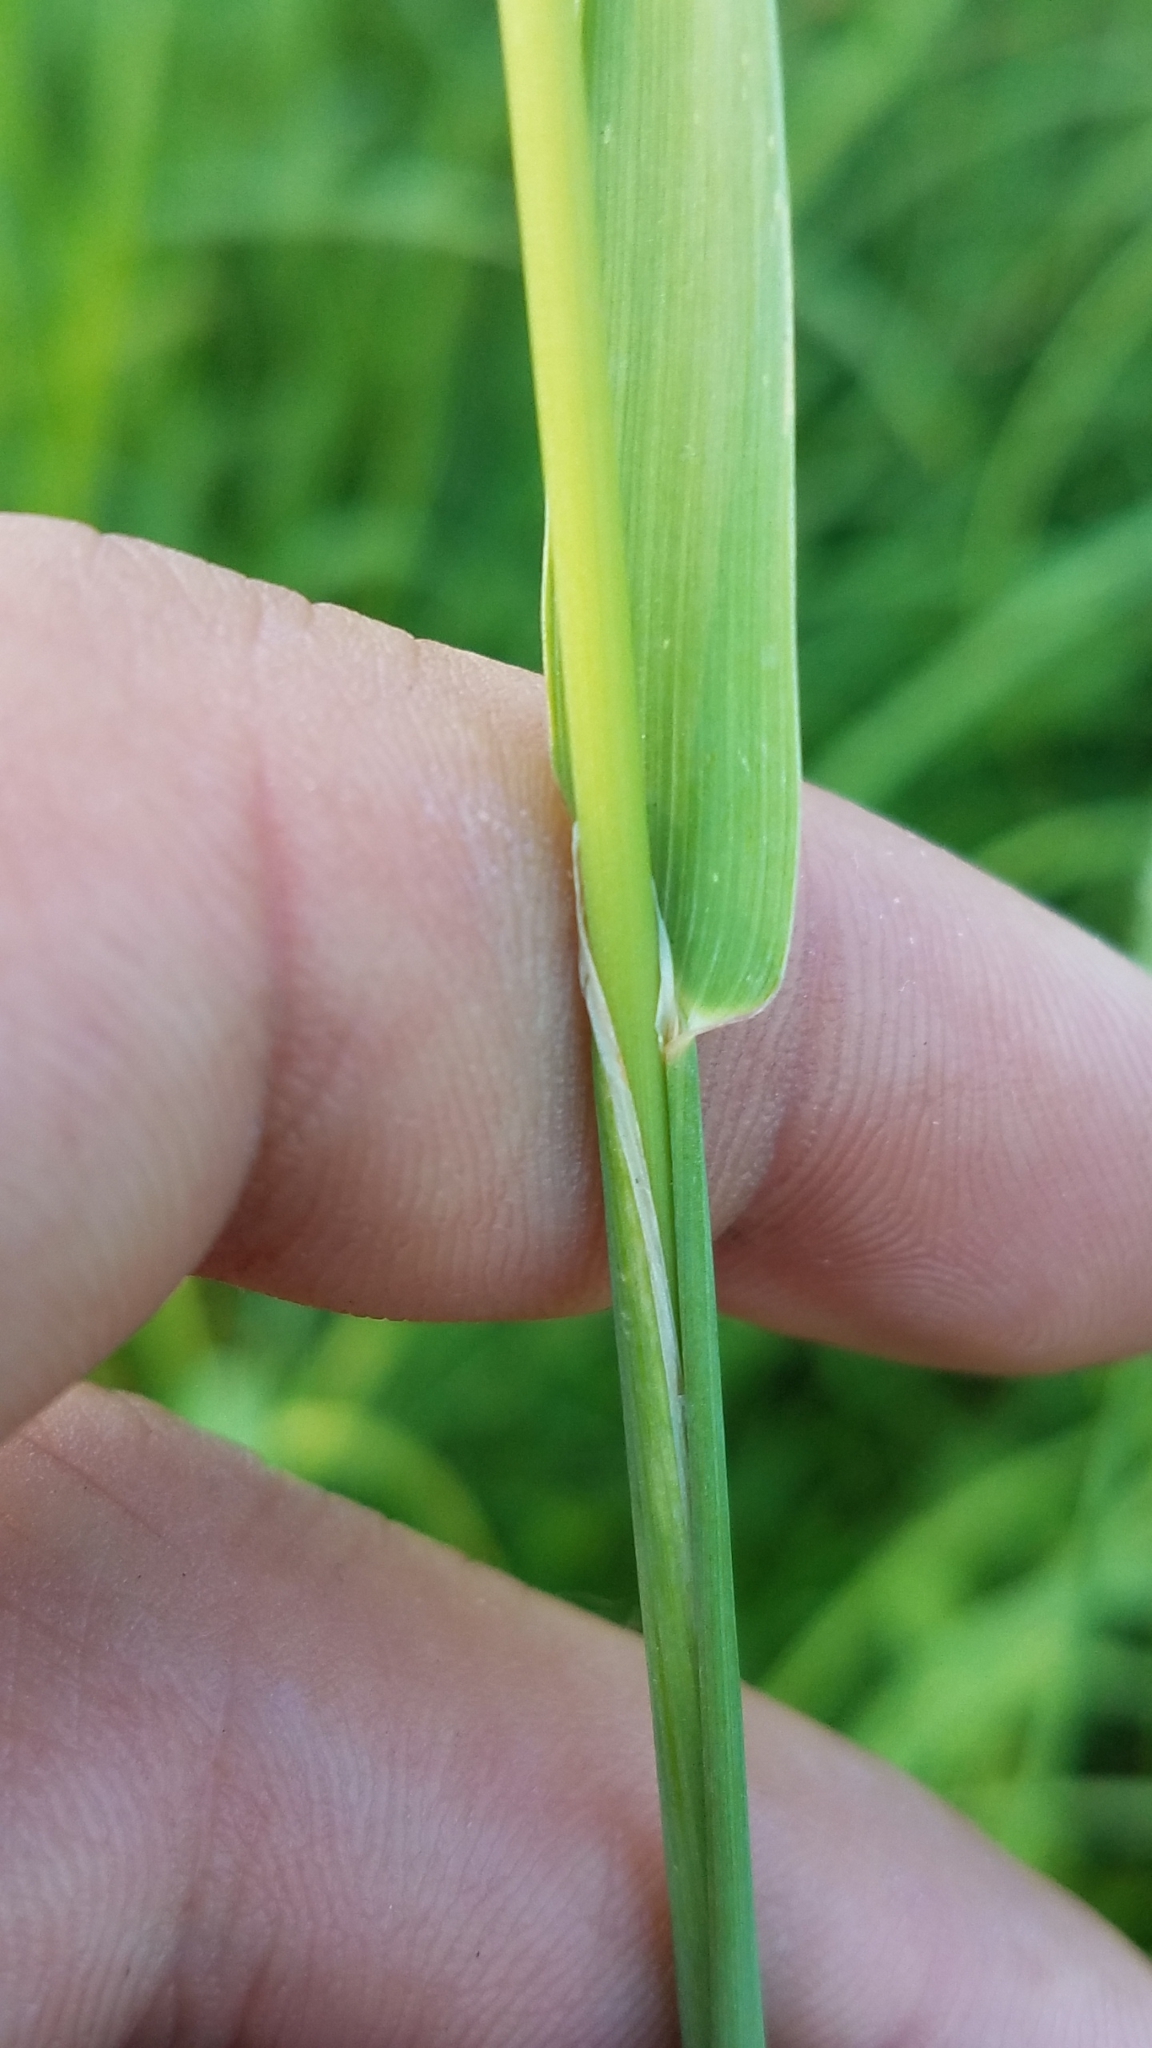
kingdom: Plantae
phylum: Tracheophyta
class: Liliopsida
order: Poales
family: Poaceae
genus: Phleum
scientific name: Phleum pratense
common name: Timothy grass
